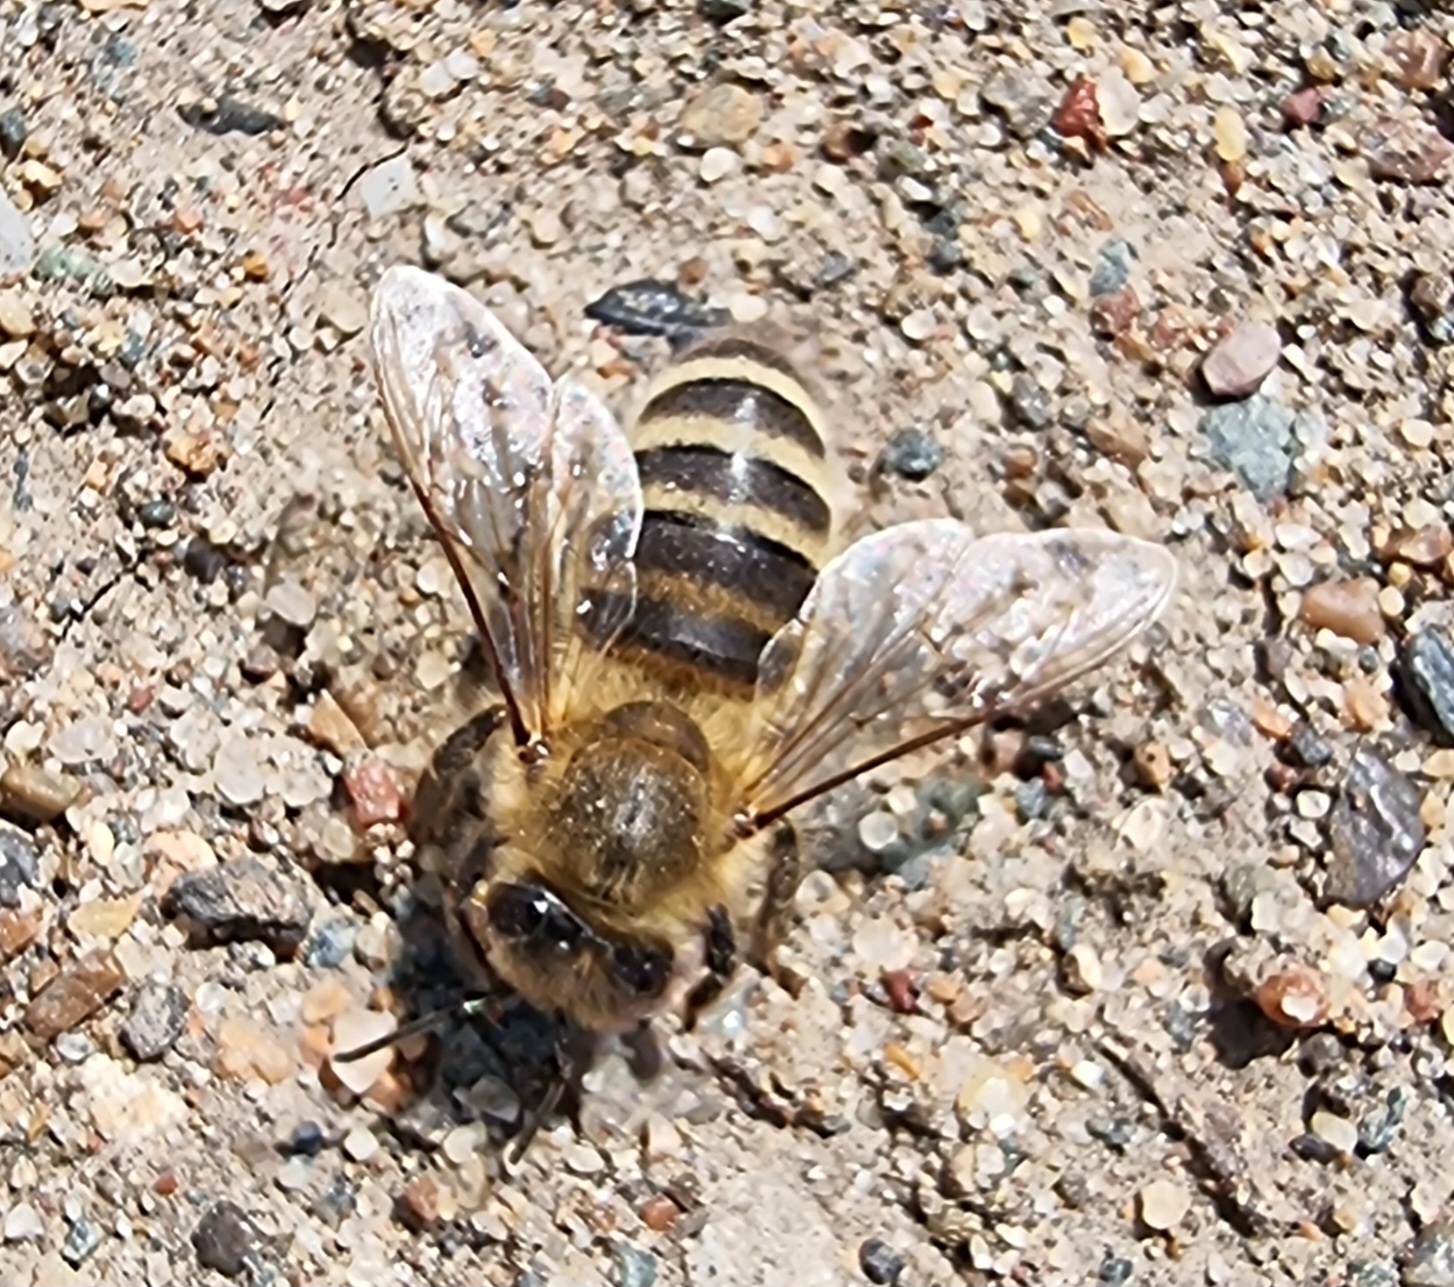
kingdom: Animalia
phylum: Arthropoda
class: Insecta
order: Hymenoptera
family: Apidae
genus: Apis
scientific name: Apis mellifera
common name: Honey bee
